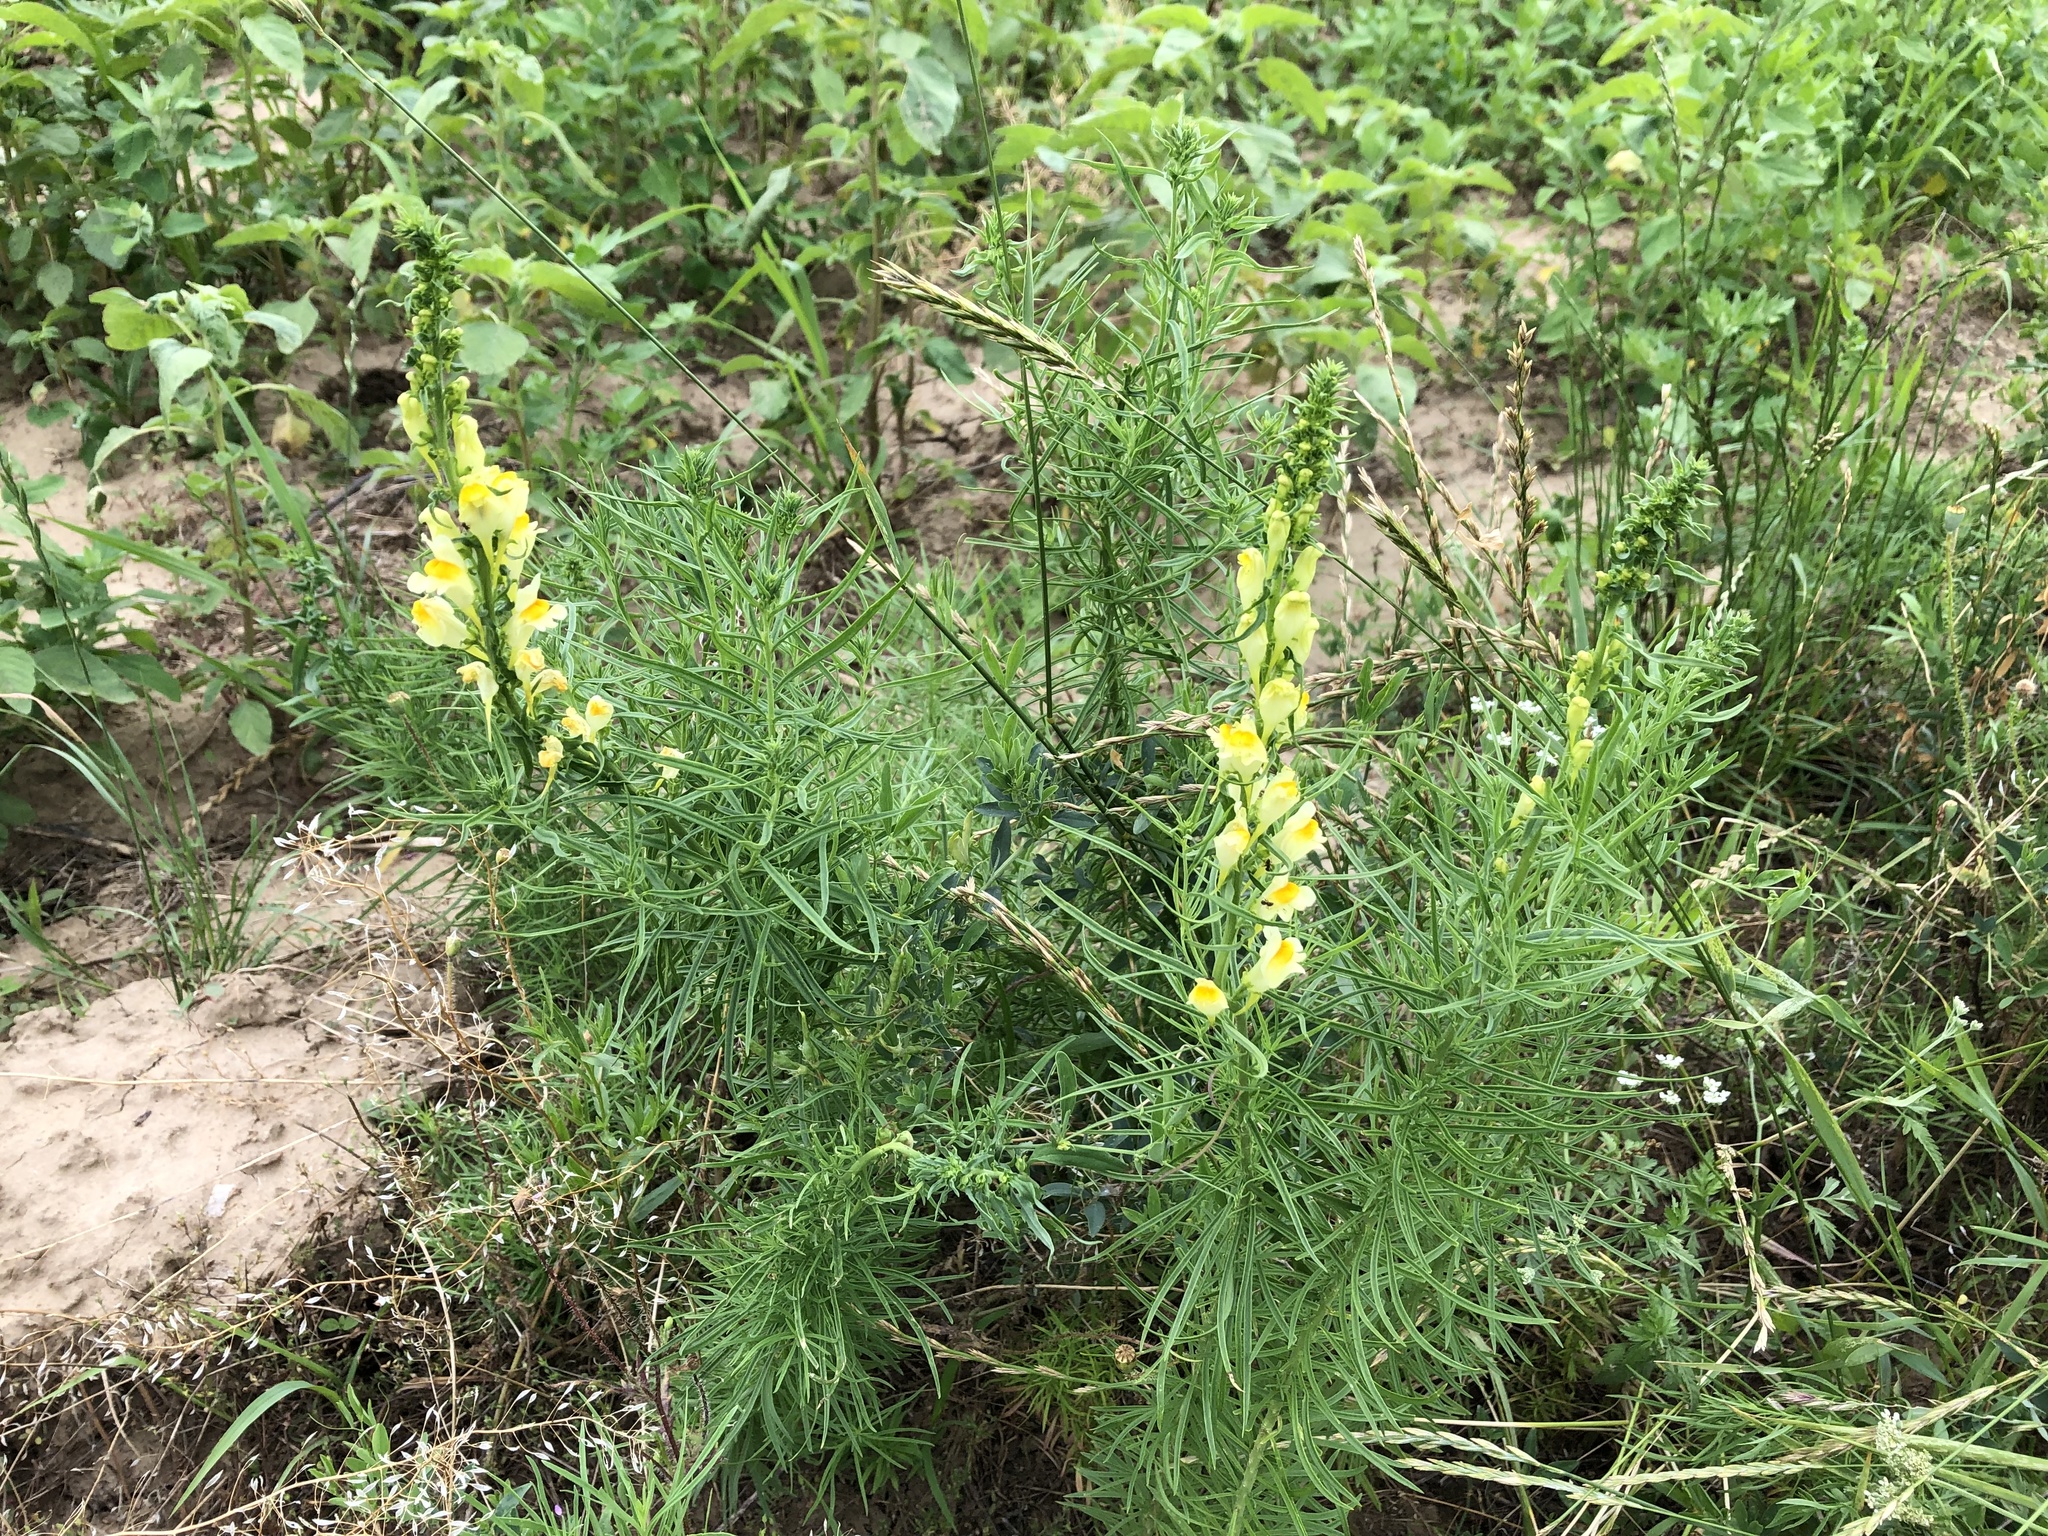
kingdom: Plantae
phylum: Tracheophyta
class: Magnoliopsida
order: Lamiales
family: Plantaginaceae
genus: Linaria
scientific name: Linaria vulgaris
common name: Butter and eggs
